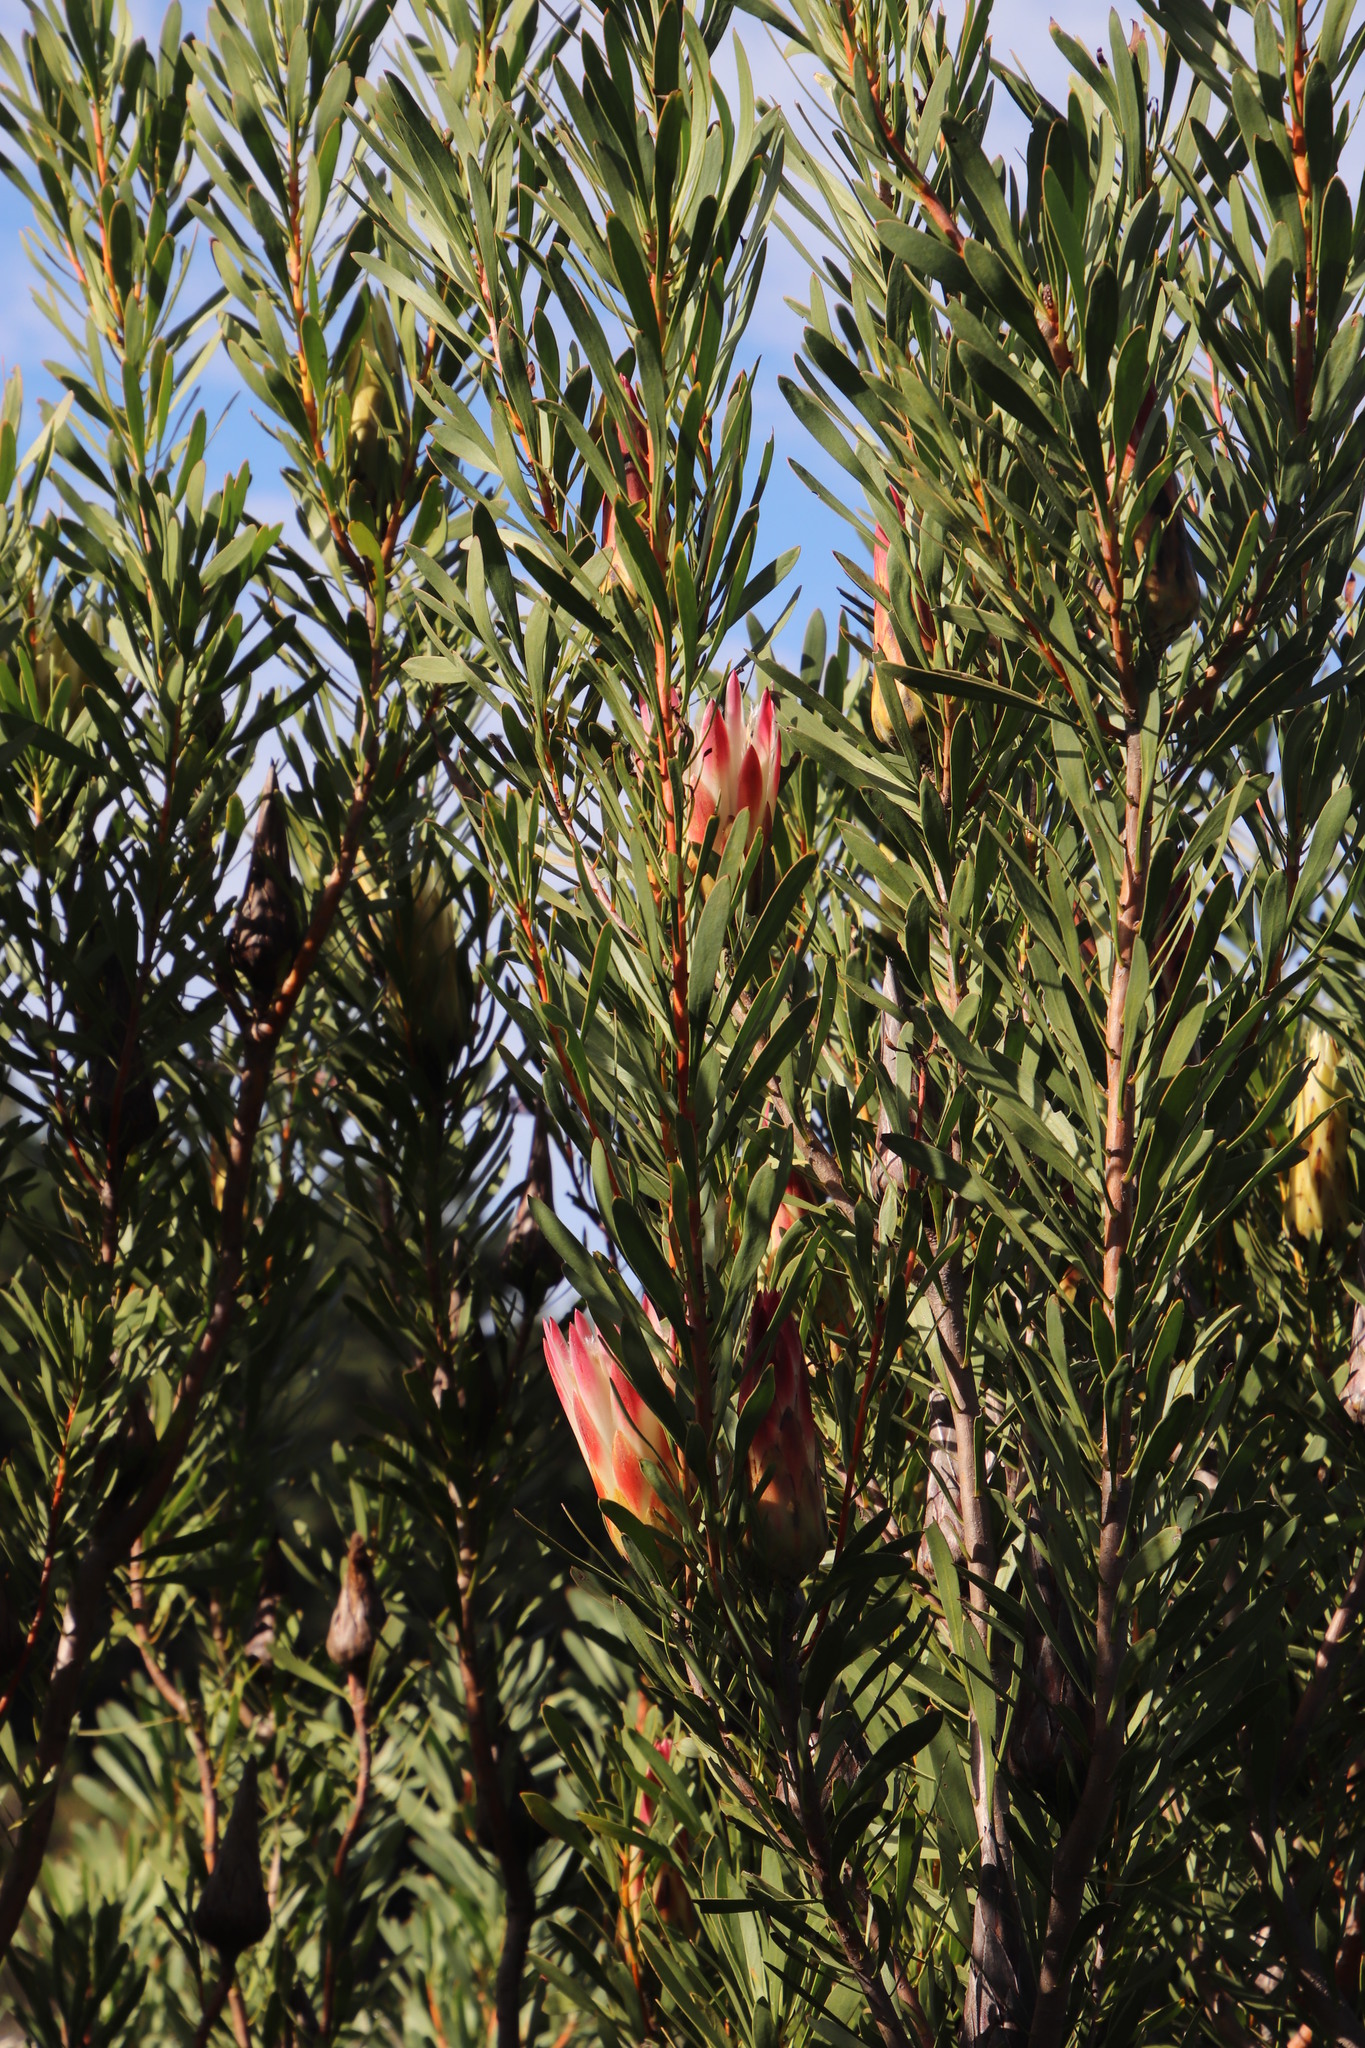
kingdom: Plantae
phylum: Tracheophyta
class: Magnoliopsida
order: Proteales
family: Proteaceae
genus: Protea
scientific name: Protea repens
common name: Sugarbush
